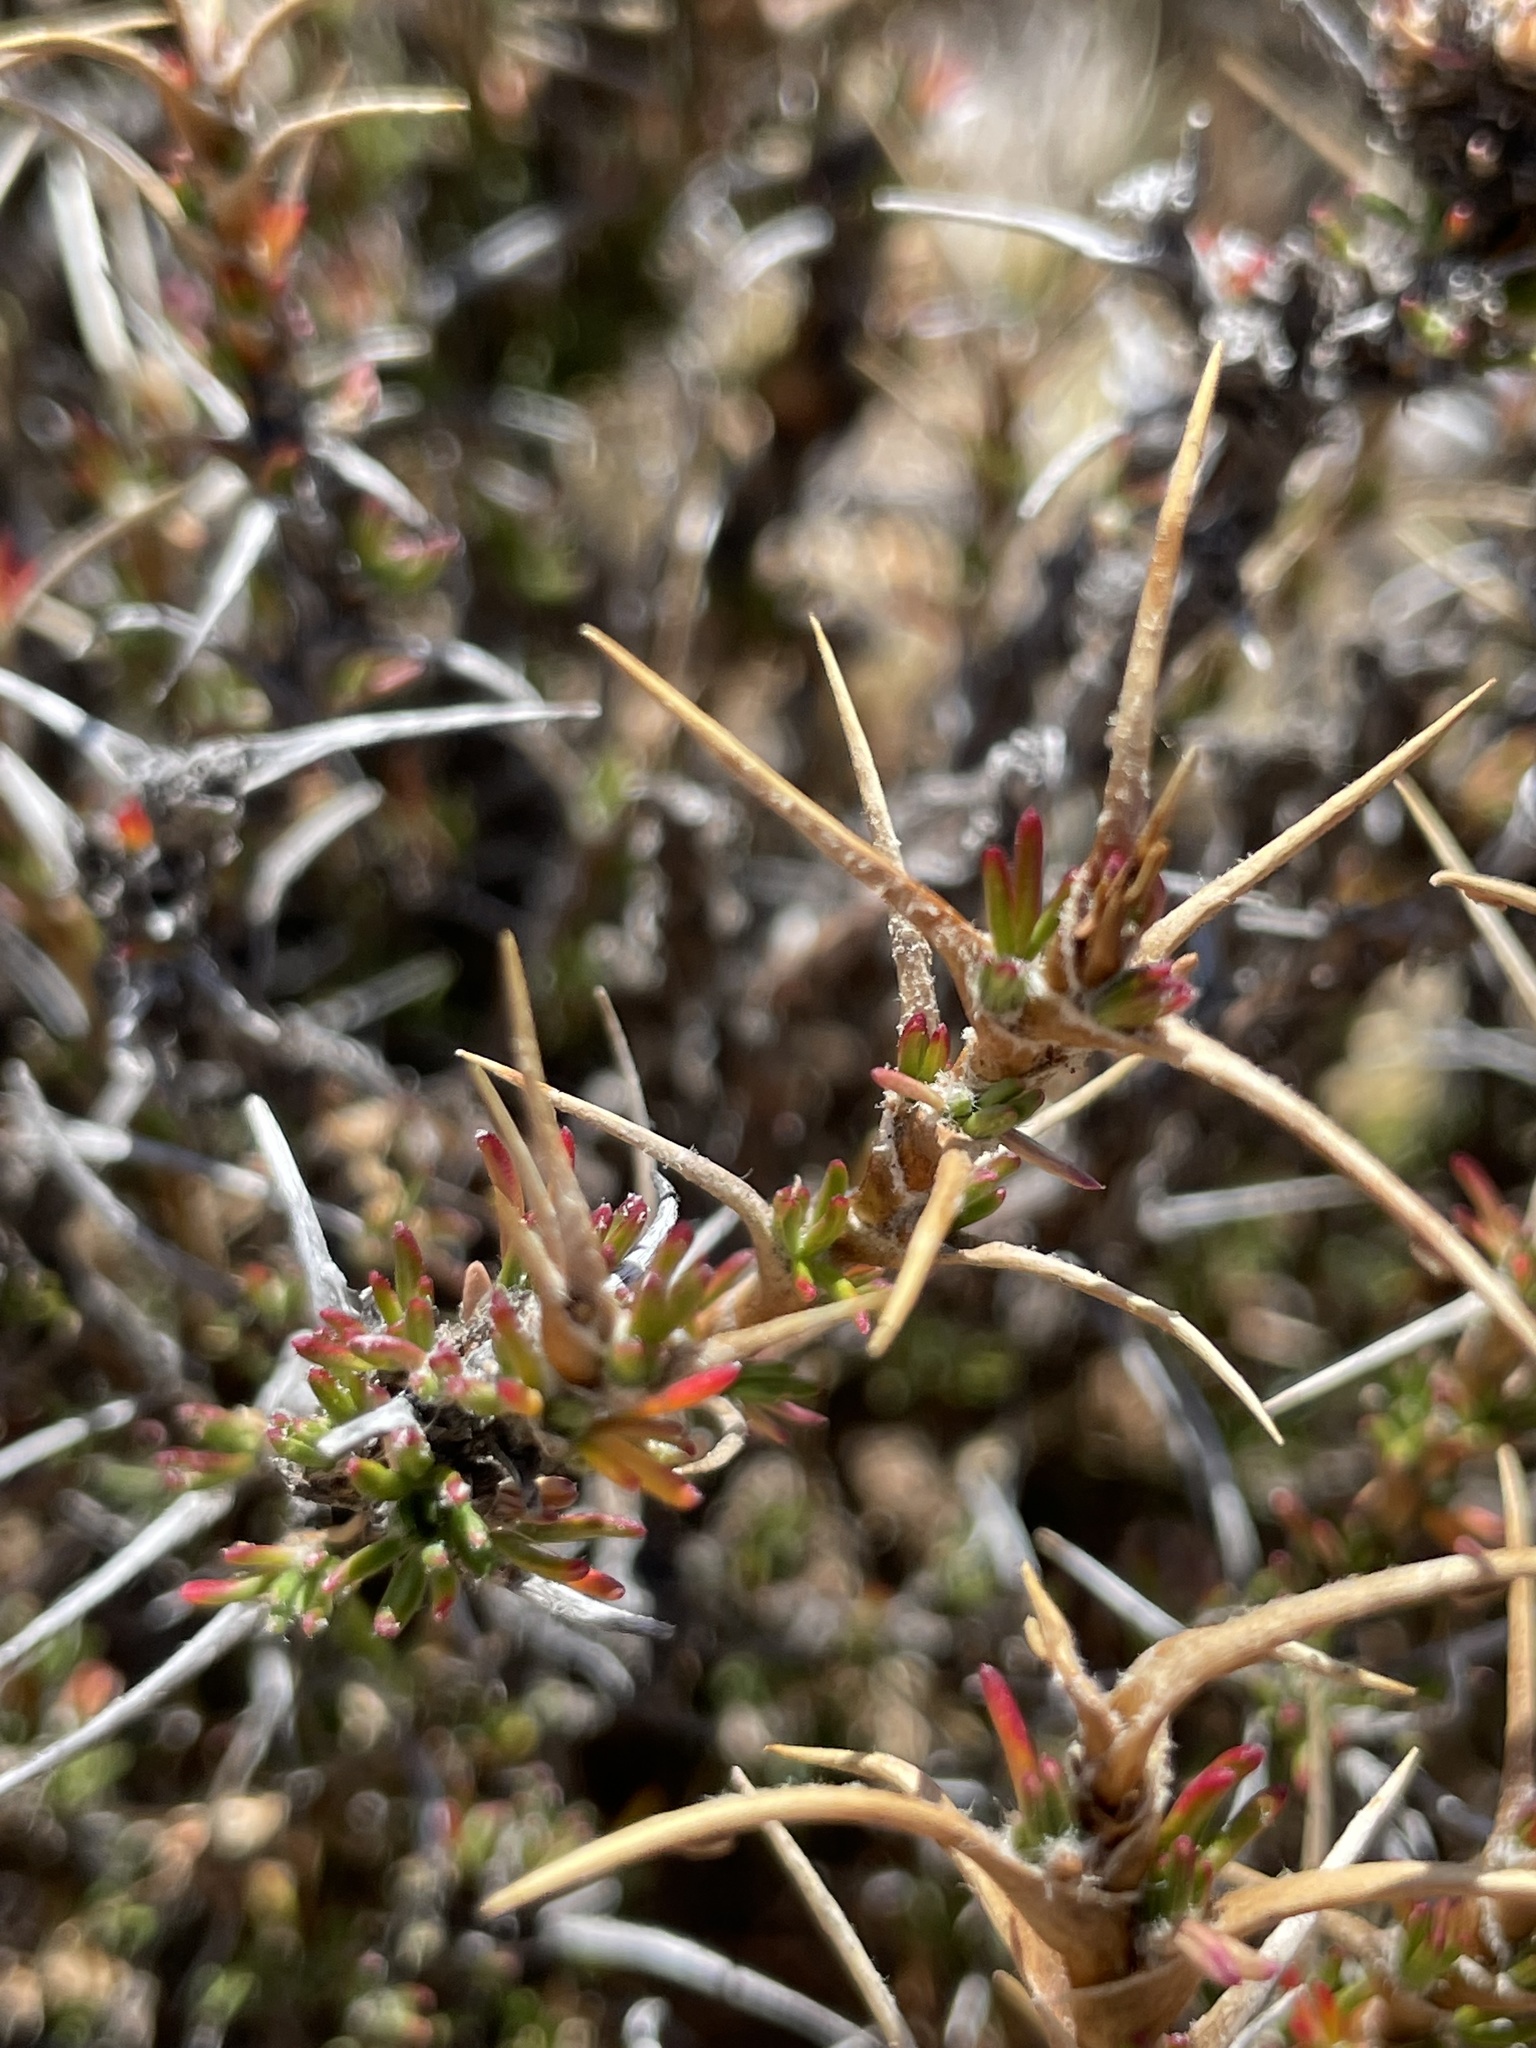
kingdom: Plantae
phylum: Tracheophyta
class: Magnoliopsida
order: Rosales
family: Rosaceae
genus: Margyricarpus
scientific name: Margyricarpus cristatus
